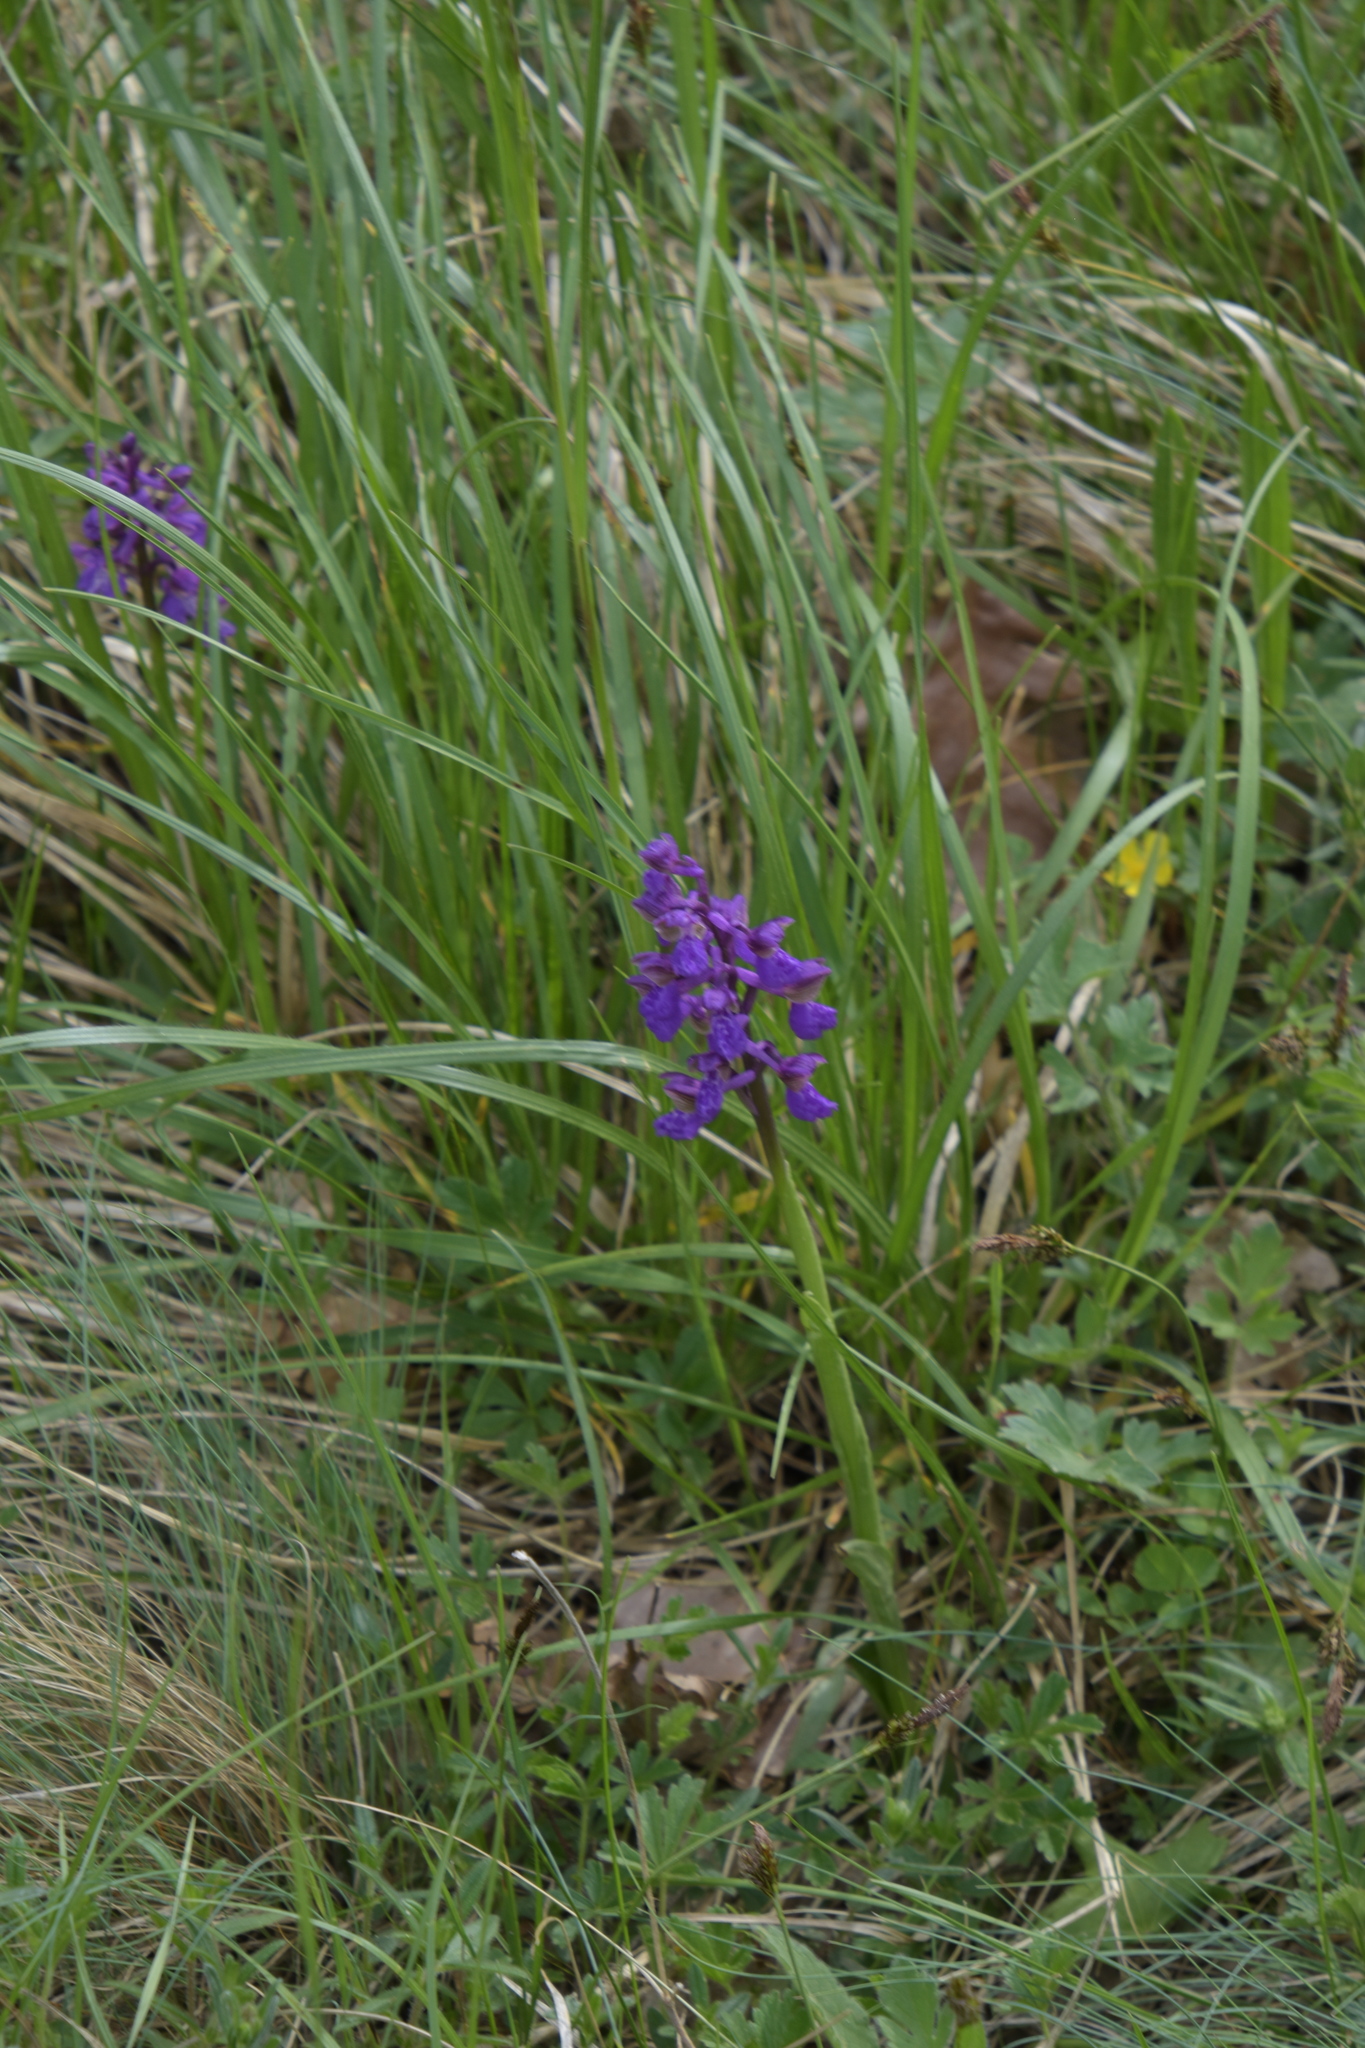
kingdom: Plantae
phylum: Tracheophyta
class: Liliopsida
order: Asparagales
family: Orchidaceae
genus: Anacamptis
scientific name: Anacamptis morio
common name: Green-winged orchid
